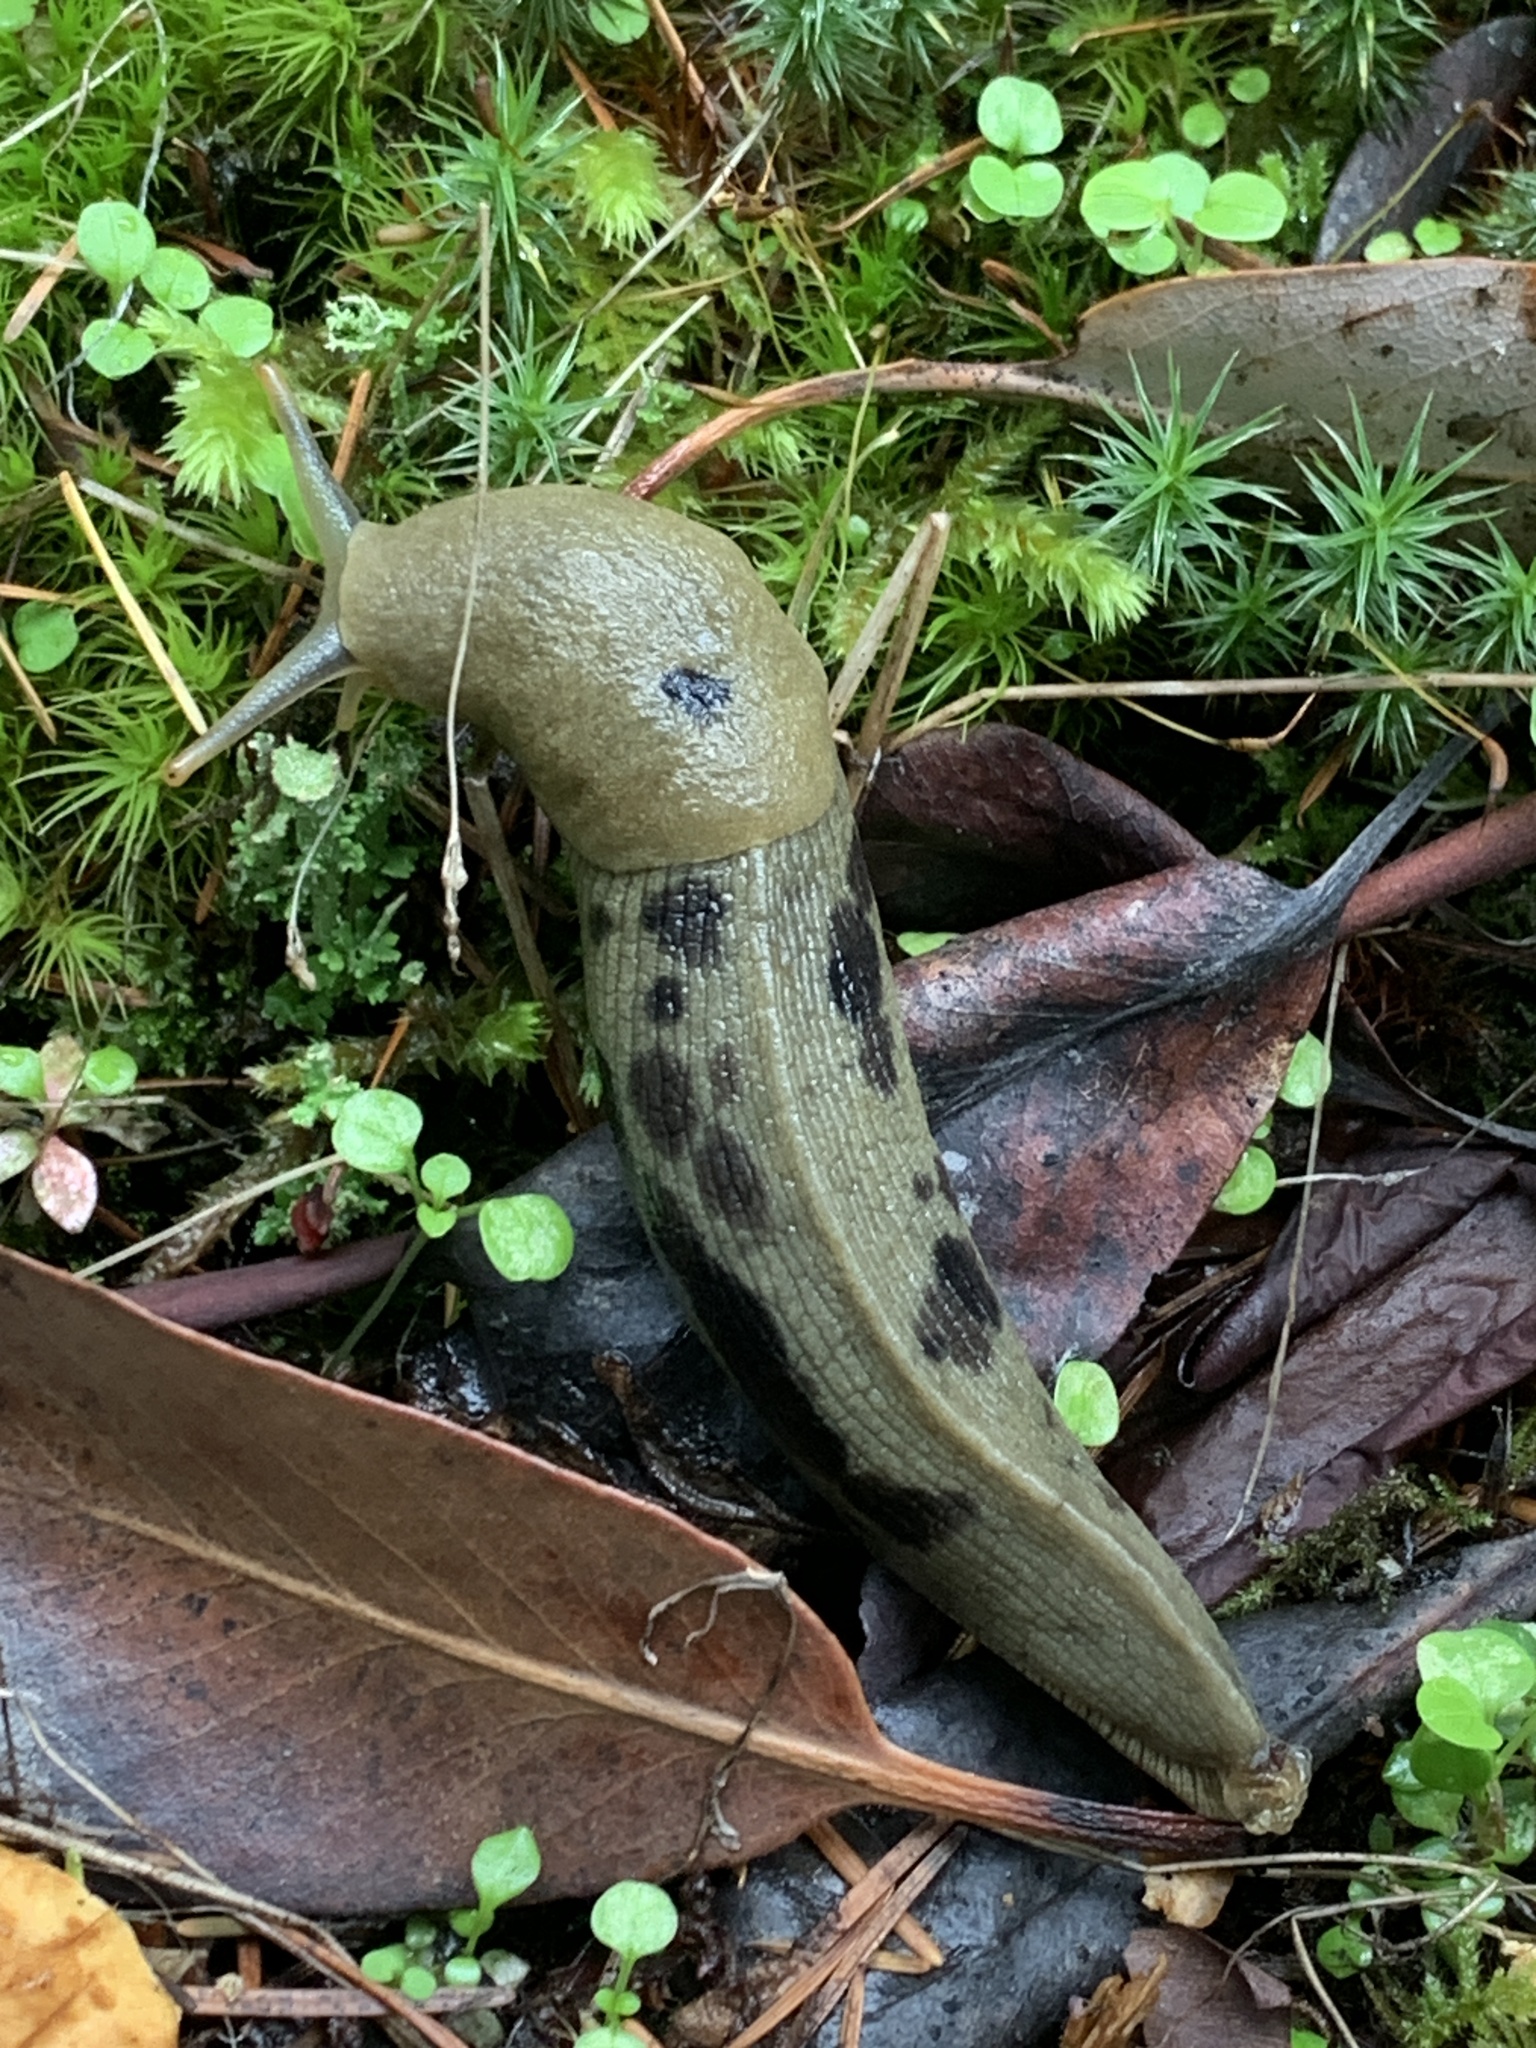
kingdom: Animalia
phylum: Mollusca
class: Gastropoda
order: Stylommatophora
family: Ariolimacidae
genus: Ariolimax
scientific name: Ariolimax columbianus
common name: Pacific banana slug
